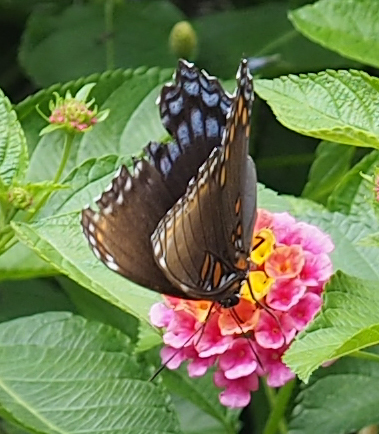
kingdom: Animalia
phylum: Arthropoda
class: Insecta
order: Lepidoptera
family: Nymphalidae
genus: Limenitis
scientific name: Limenitis astyanax
